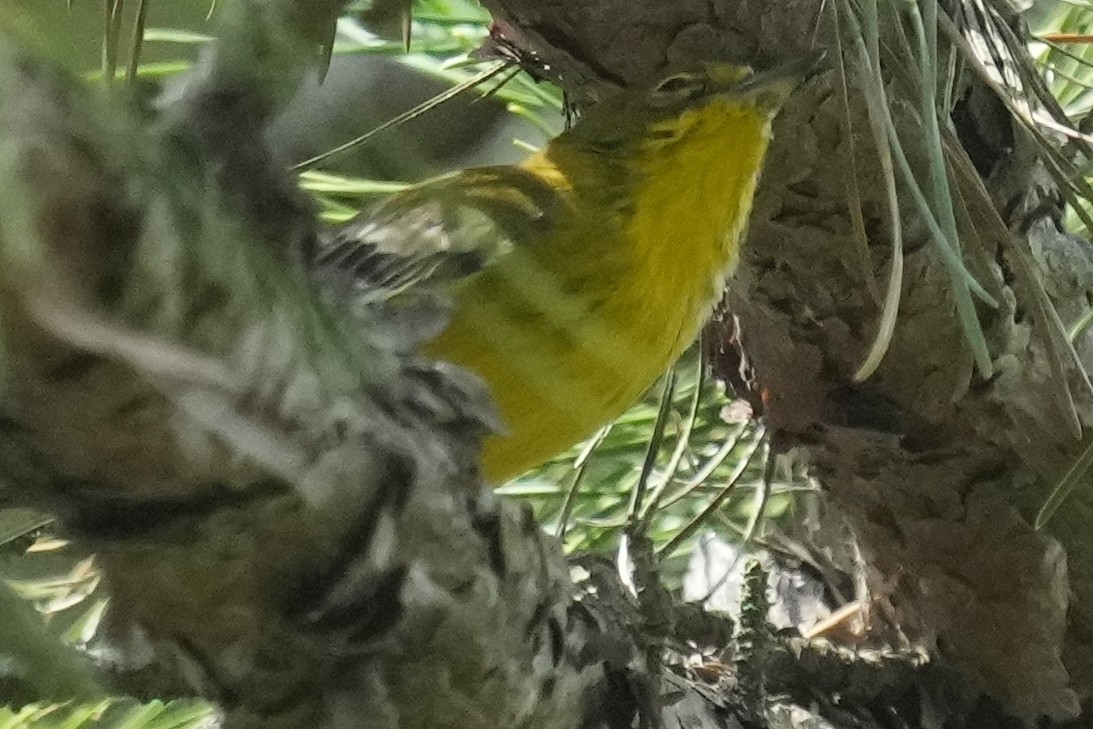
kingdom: Animalia
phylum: Chordata
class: Aves
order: Passeriformes
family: Parulidae
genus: Setophaga
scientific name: Setophaga pinus
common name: Pine warbler
